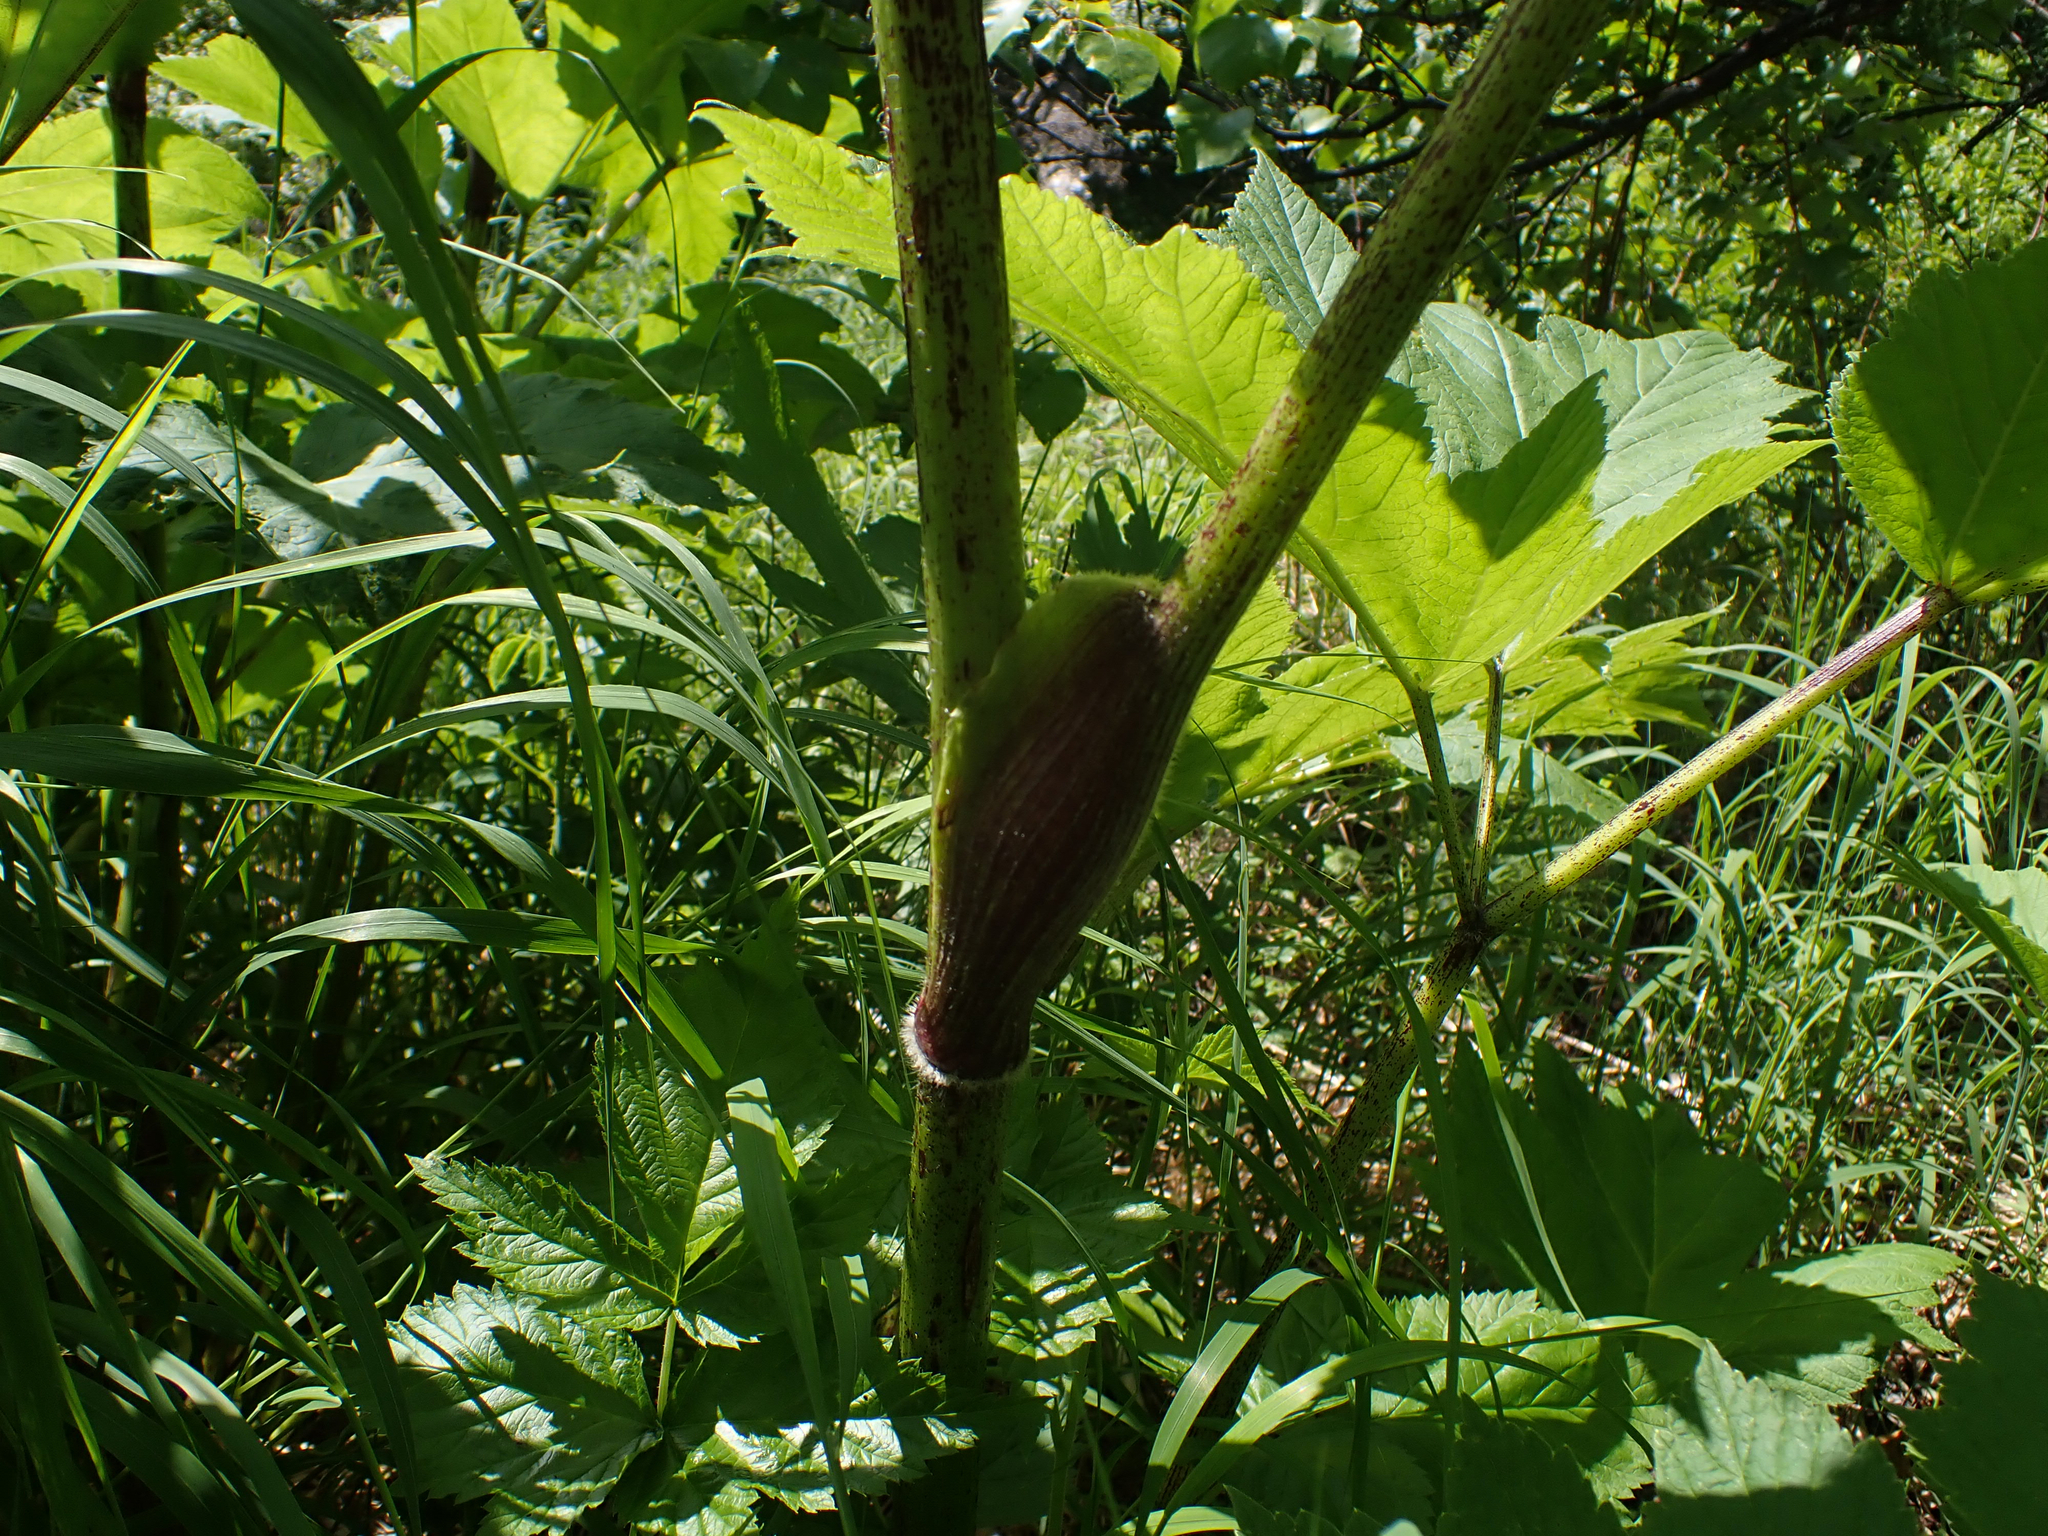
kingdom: Plantae
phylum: Tracheophyta
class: Magnoliopsida
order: Apiales
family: Apiaceae
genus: Heracleum
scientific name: Heracleum maximum
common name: American cow parsnip
